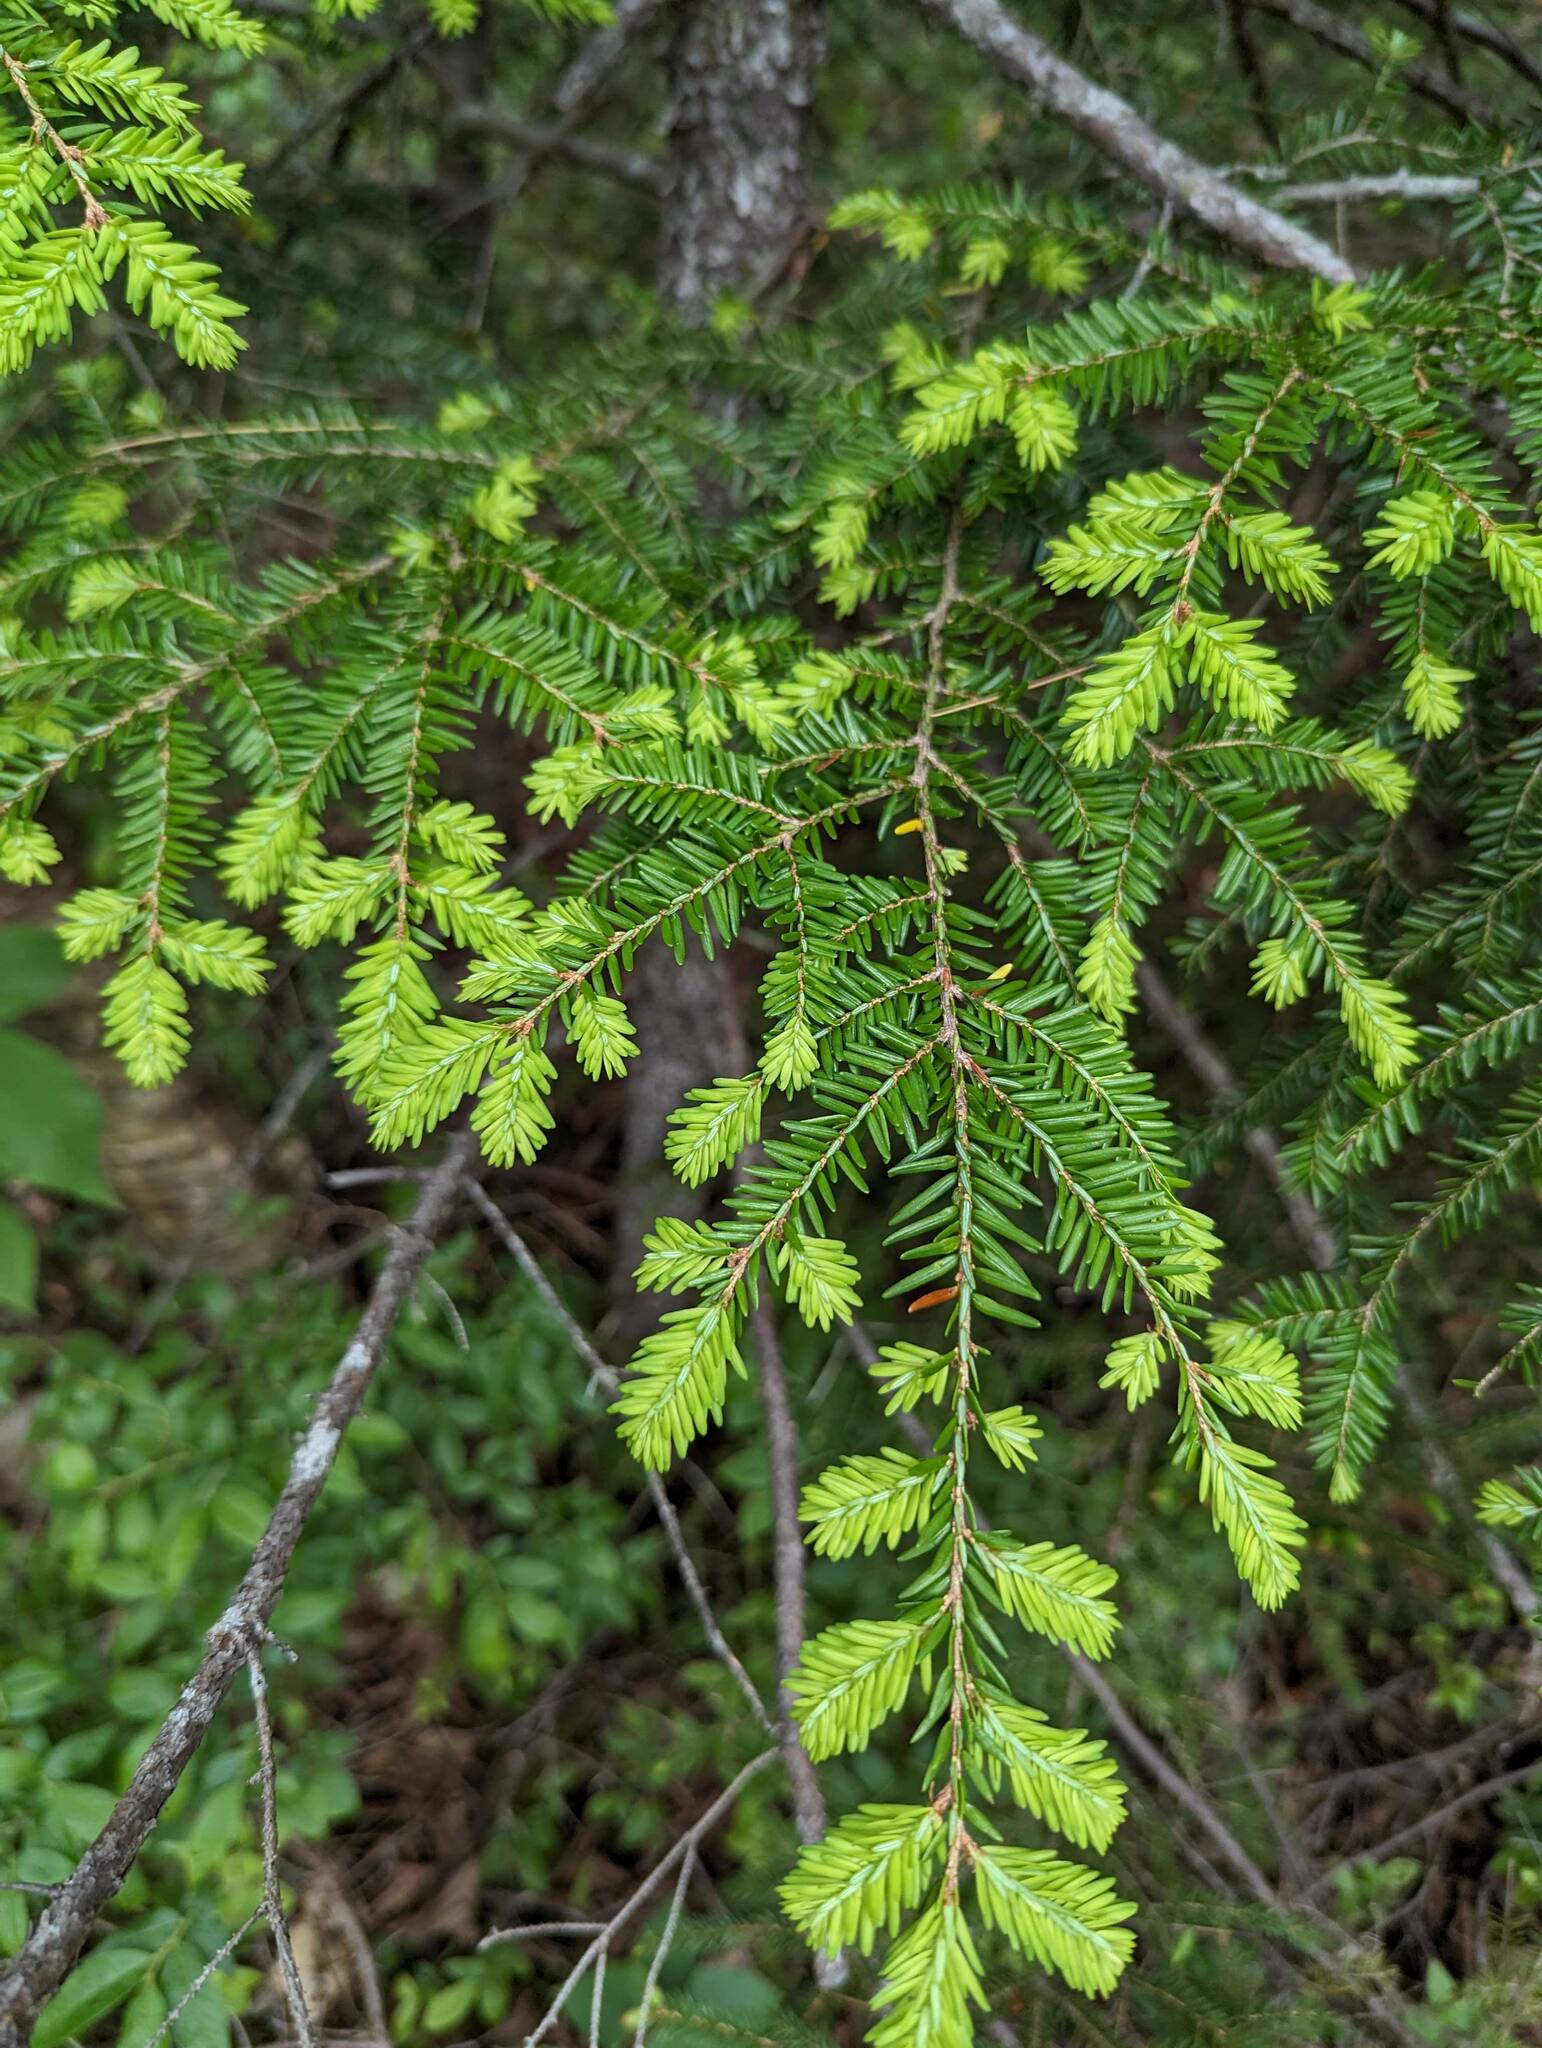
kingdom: Plantae
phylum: Tracheophyta
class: Pinopsida
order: Pinales
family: Pinaceae
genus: Tsuga
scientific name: Tsuga canadensis
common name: Eastern hemlock
